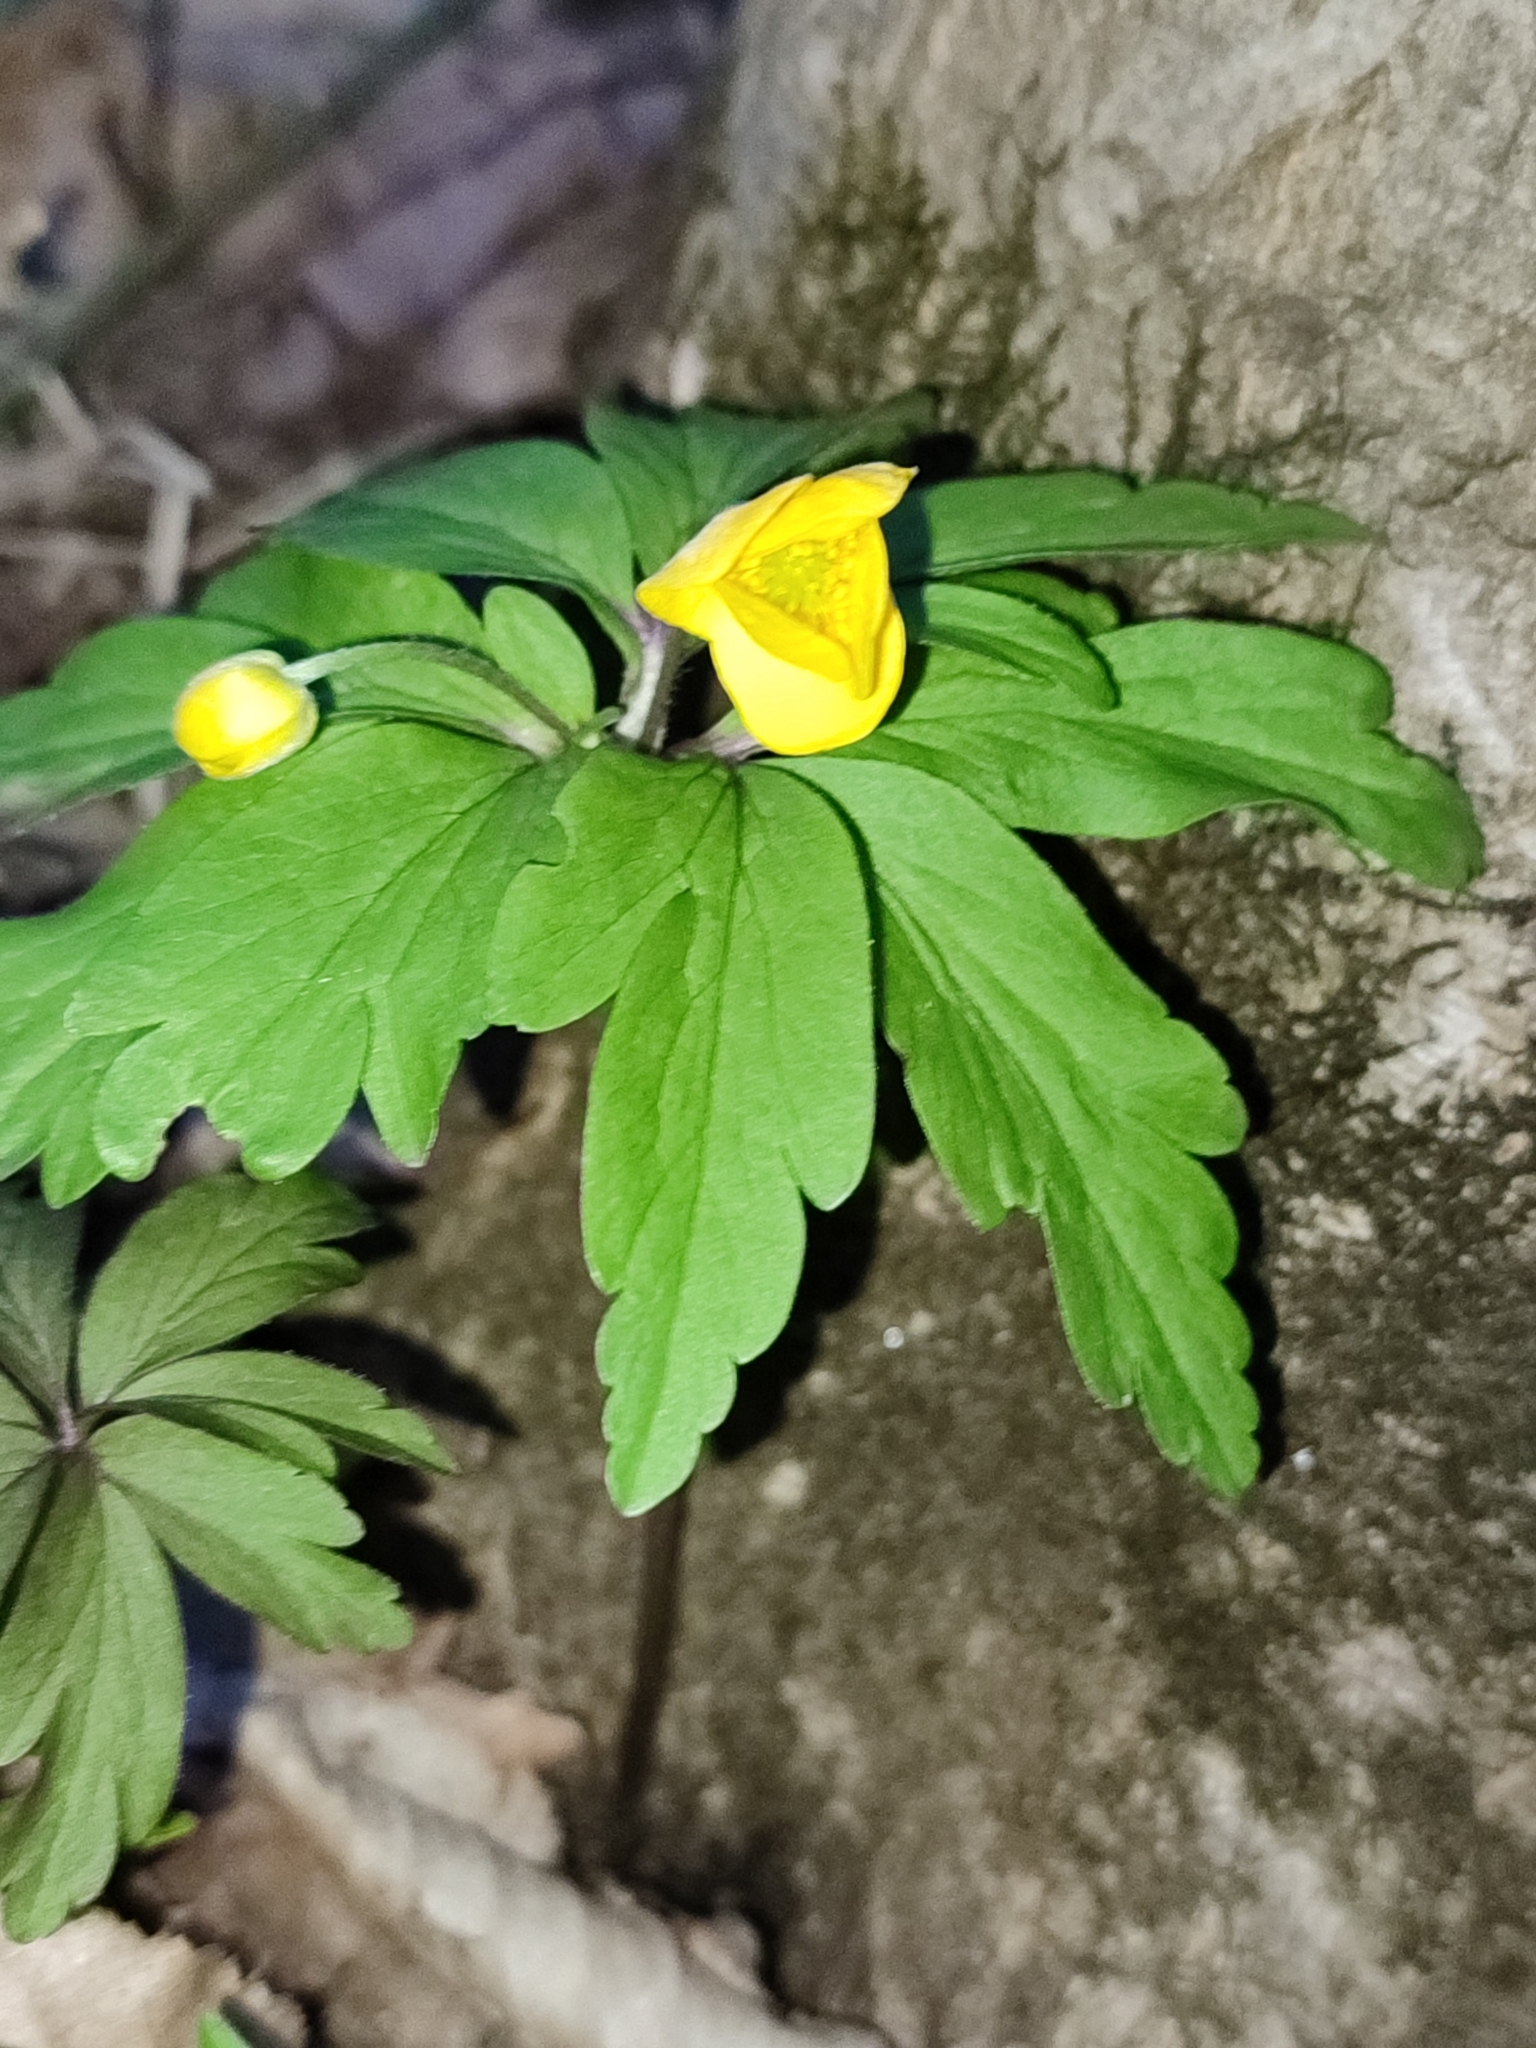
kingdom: Plantae
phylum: Tracheophyta
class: Magnoliopsida
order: Ranunculales
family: Ranunculaceae
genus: Anemone
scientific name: Anemone ranunculoides
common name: Yellow anemone
